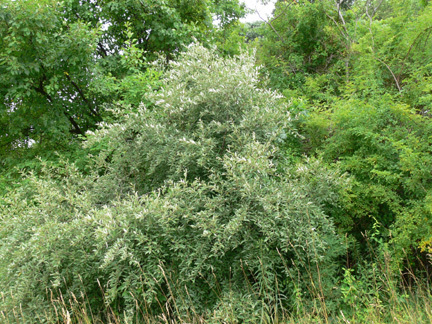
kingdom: Plantae
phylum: Tracheophyta
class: Magnoliopsida
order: Rosales
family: Elaeagnaceae
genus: Elaeagnus
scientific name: Elaeagnus umbellata
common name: Autumn olive
